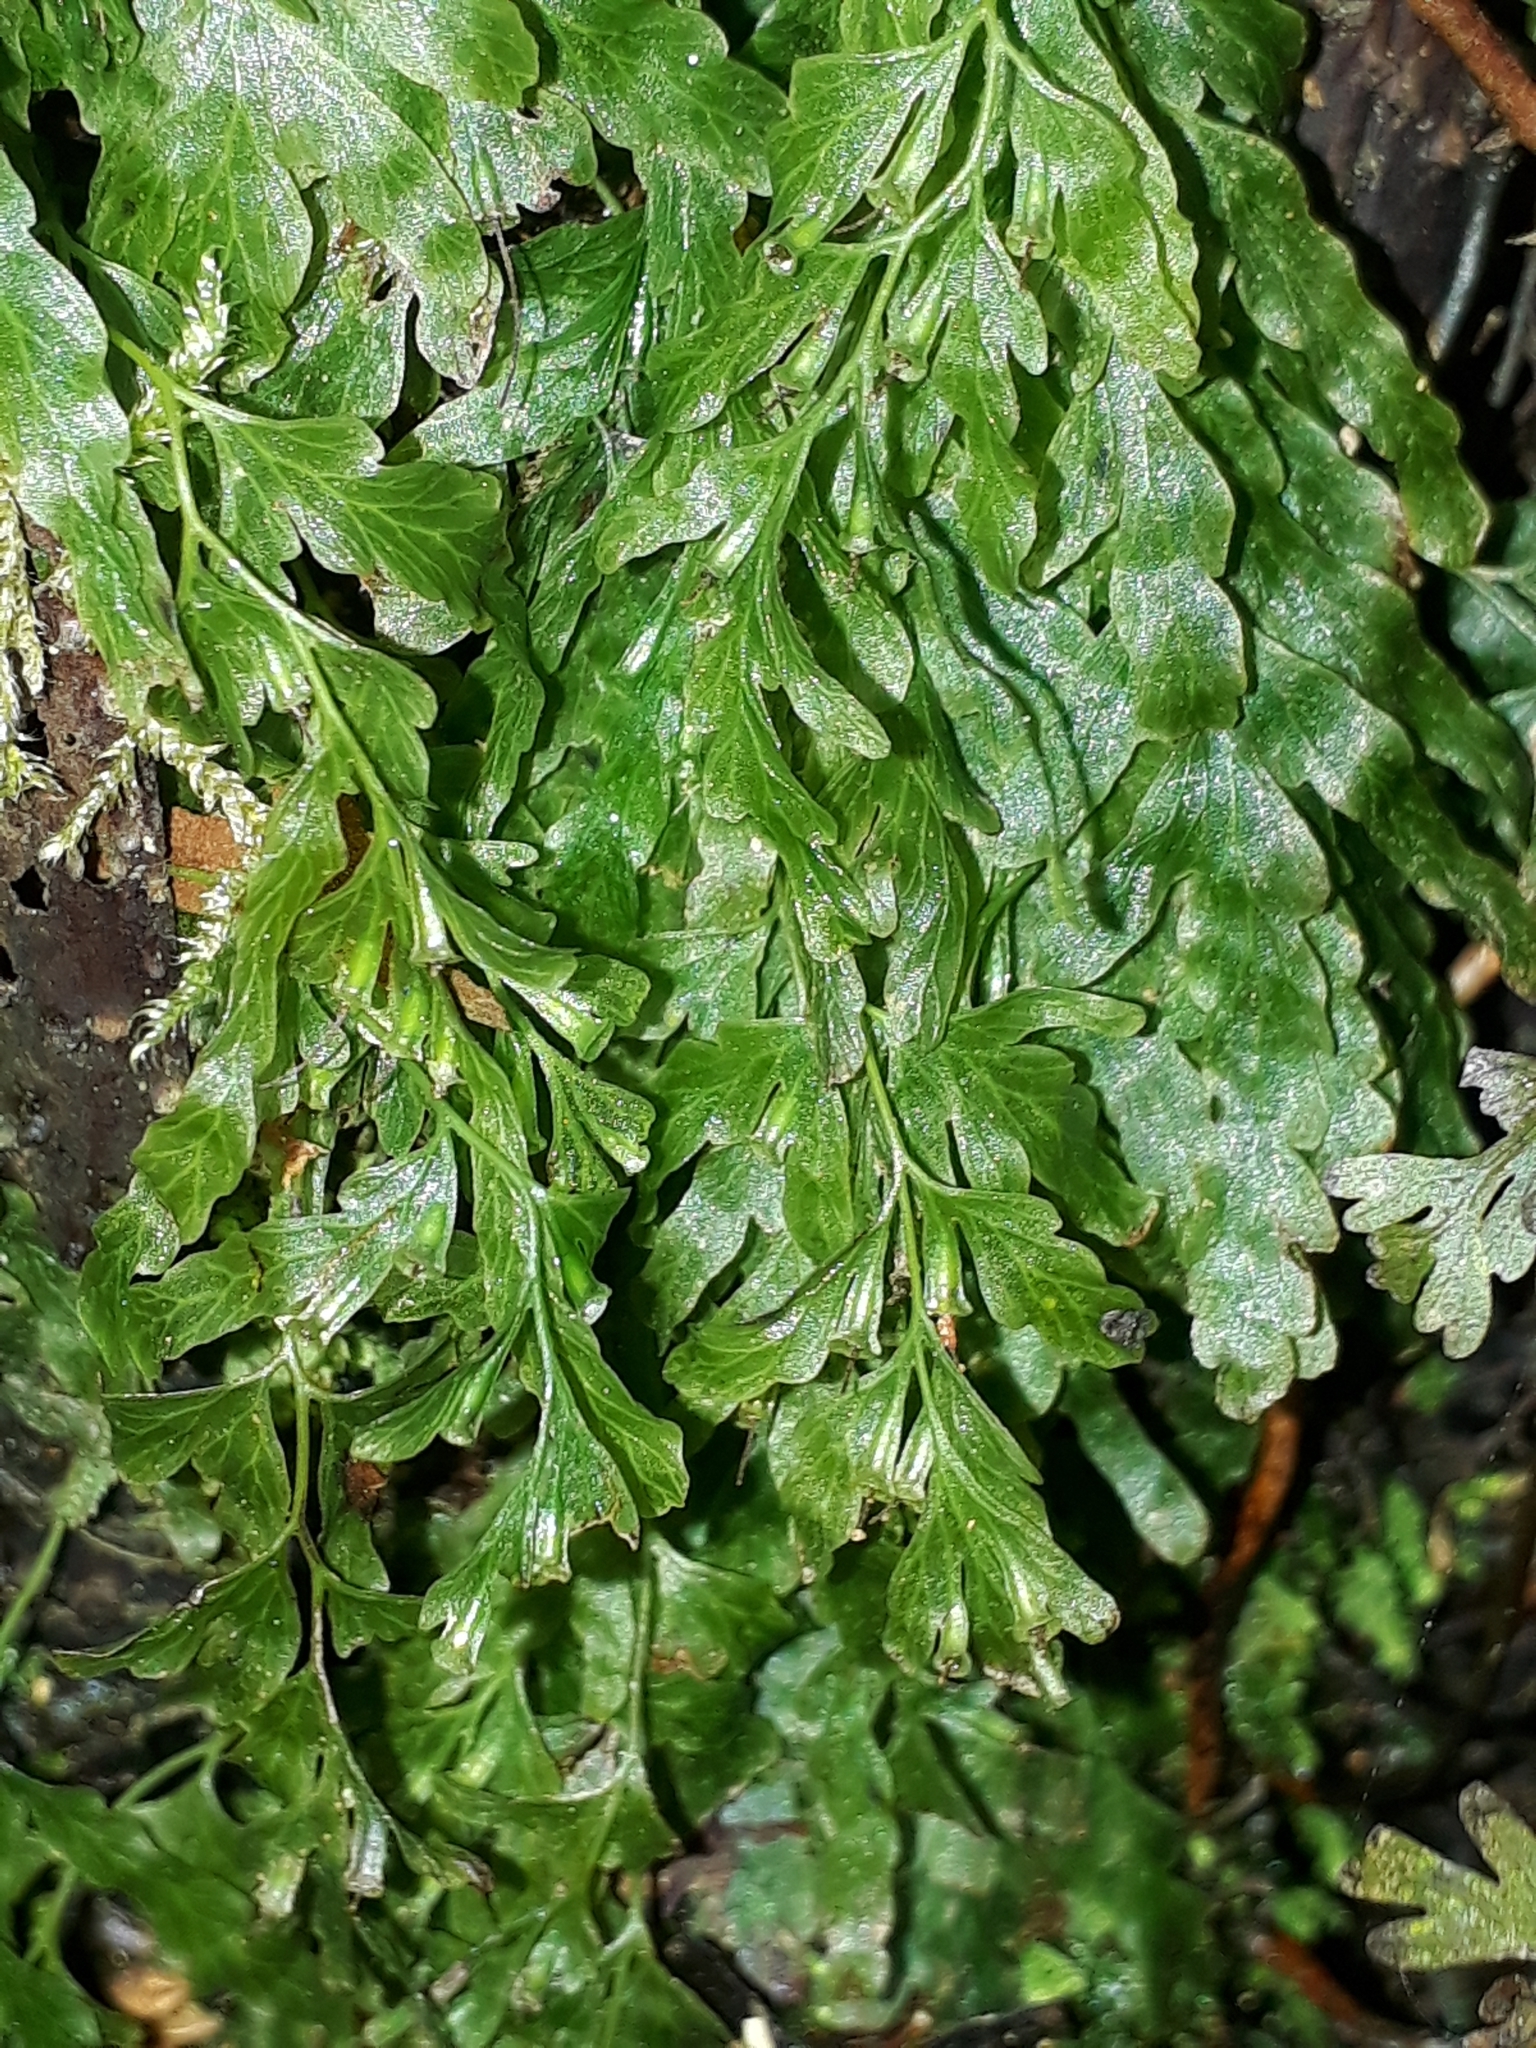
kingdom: Plantae
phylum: Tracheophyta
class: Polypodiopsida
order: Hymenophyllales
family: Hymenophyllaceae
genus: Polyphlebium
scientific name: Polyphlebium venosum
